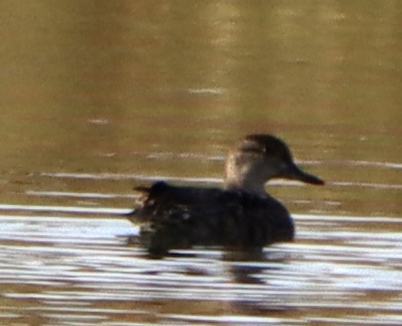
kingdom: Animalia
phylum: Chordata
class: Aves
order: Anseriformes
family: Anatidae
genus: Anas
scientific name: Anas crecca
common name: Eurasian teal
